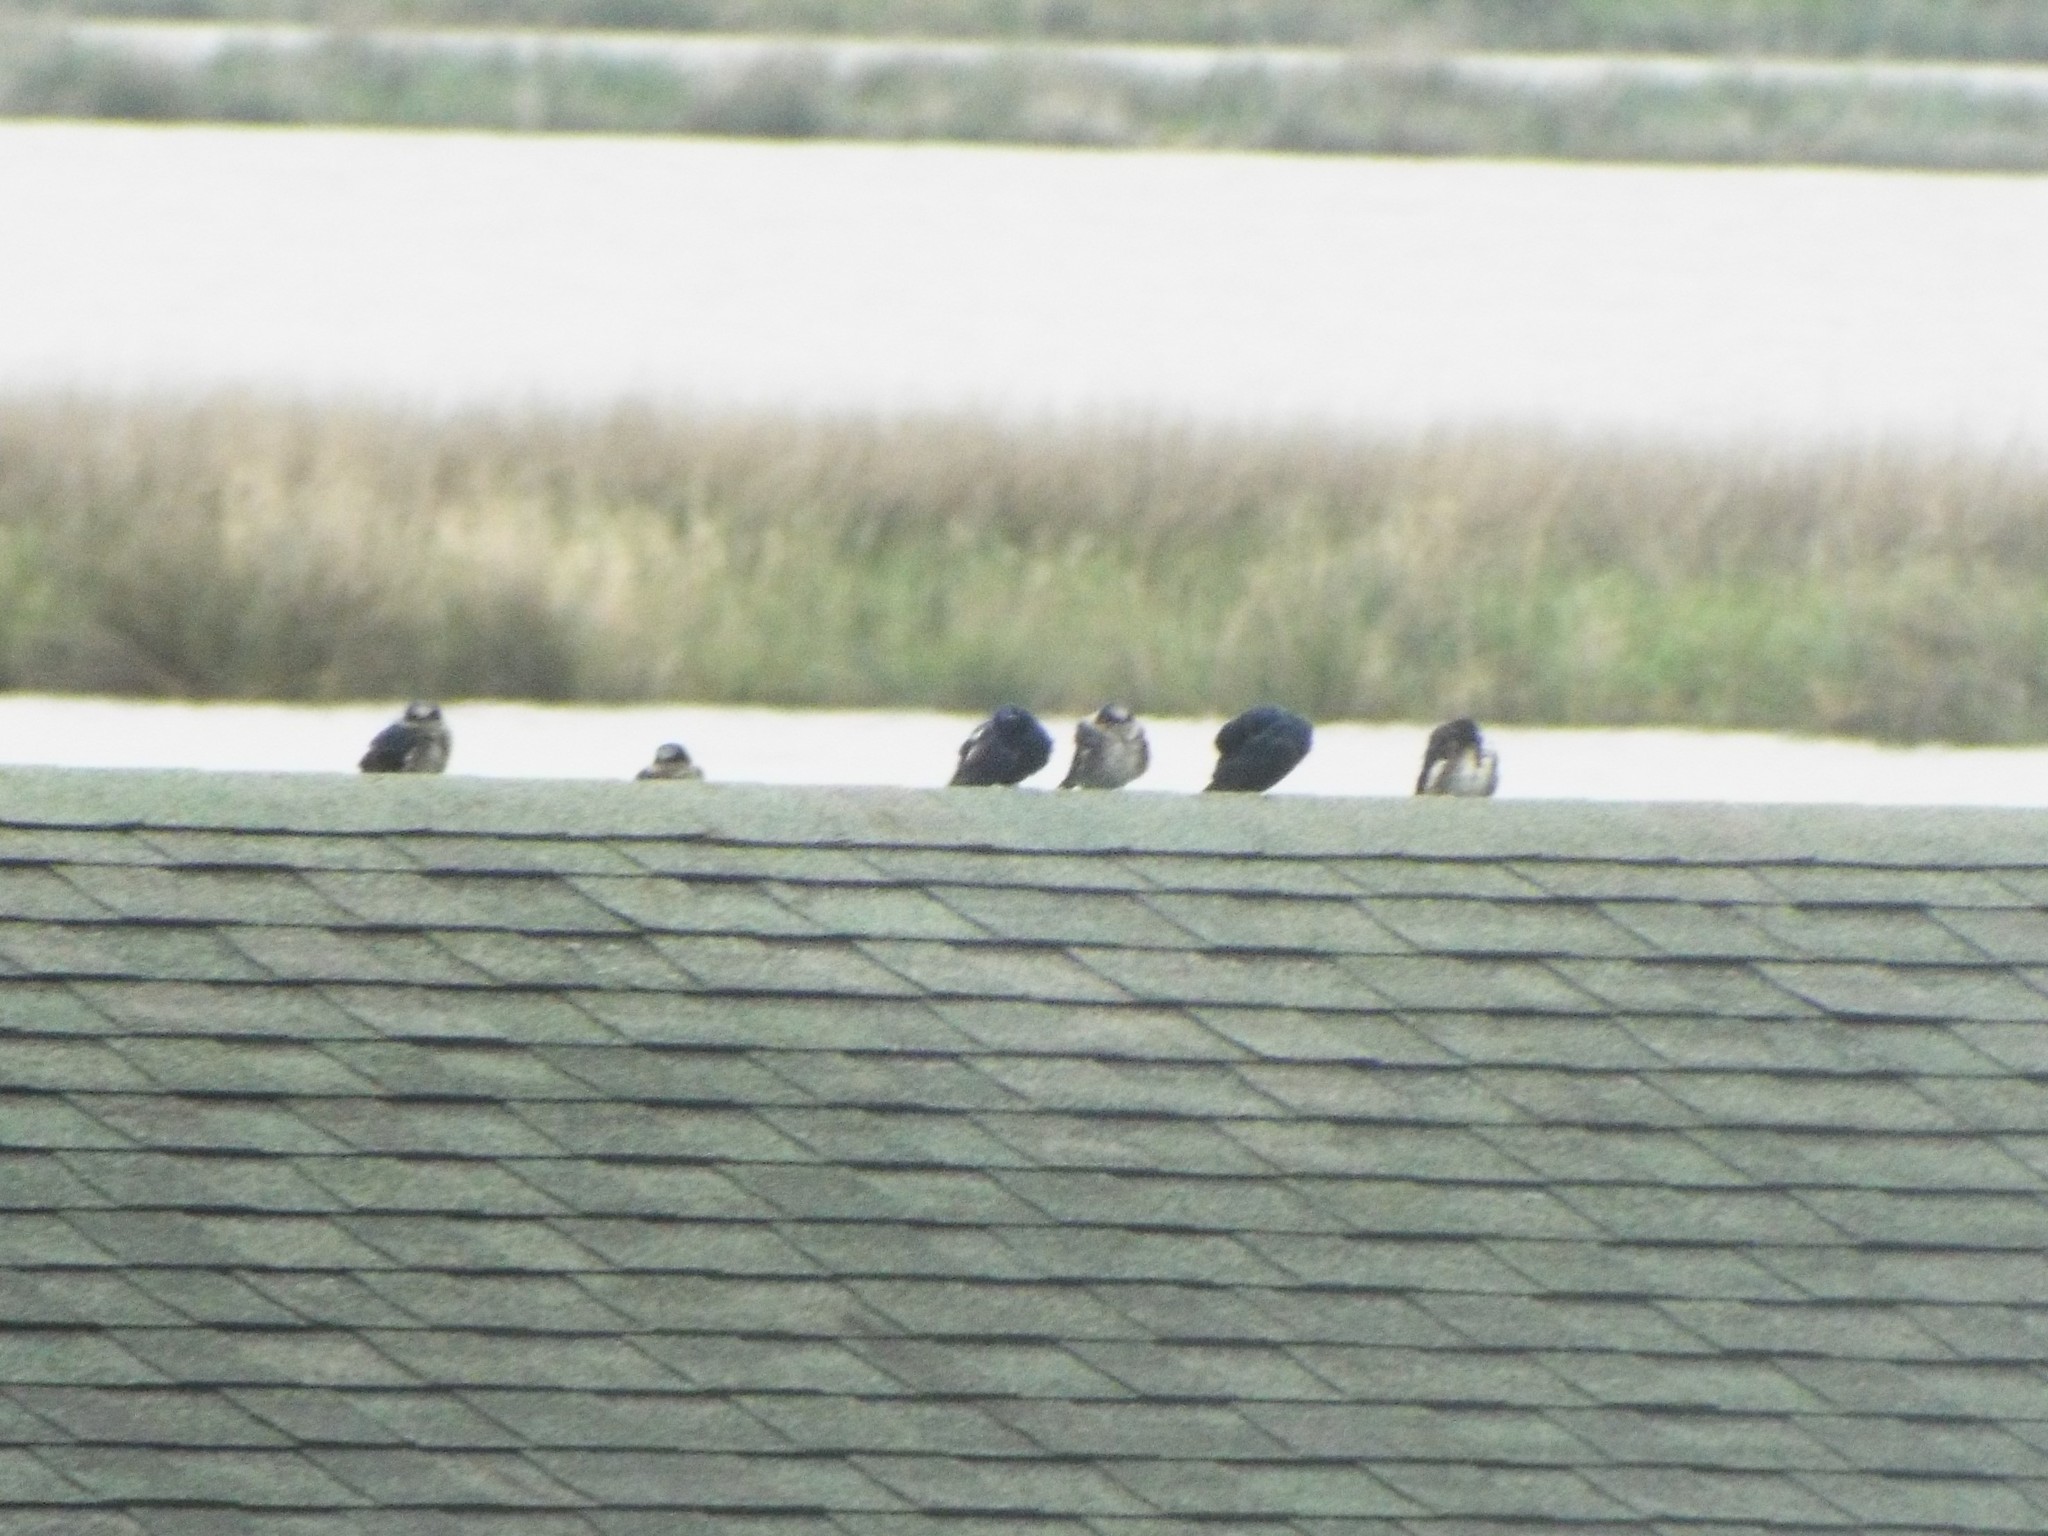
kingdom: Animalia
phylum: Chordata
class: Aves
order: Passeriformes
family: Hirundinidae
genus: Progne
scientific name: Progne subis
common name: Purple martin
